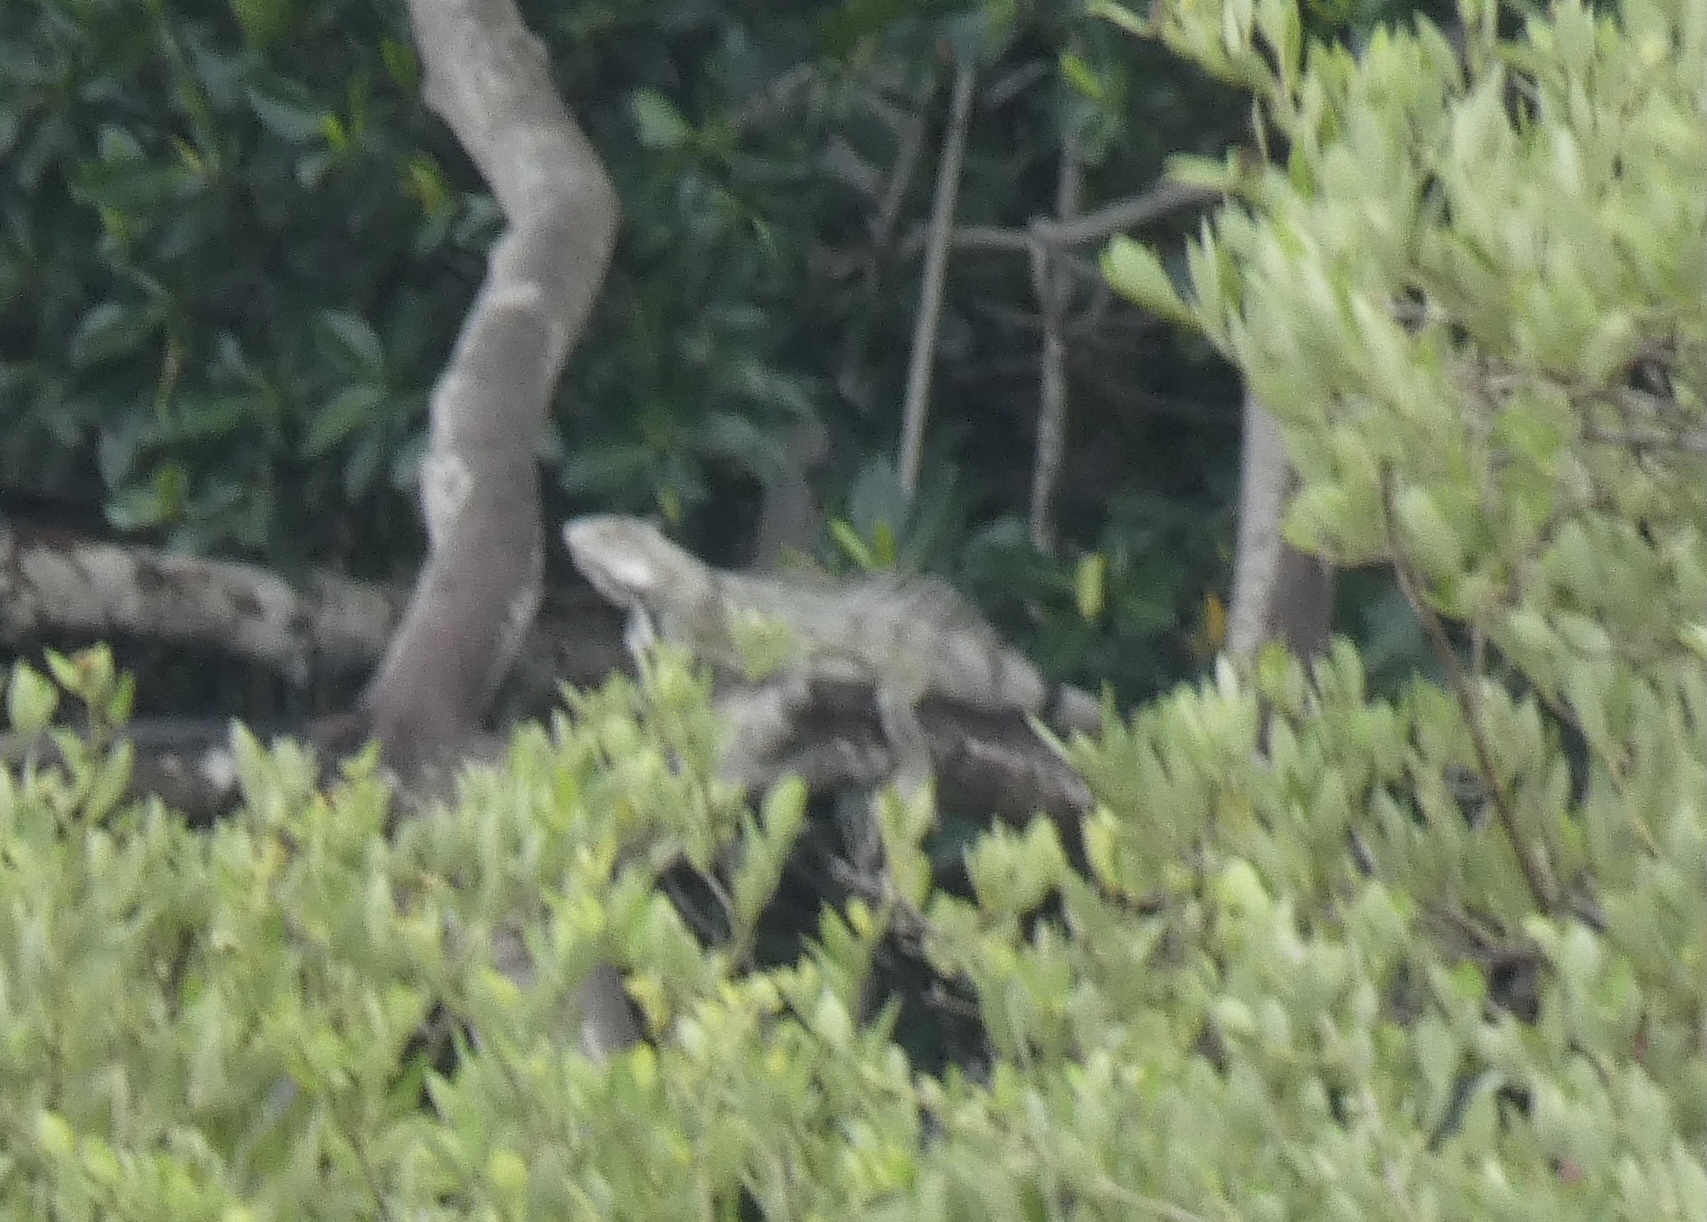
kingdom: Animalia
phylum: Chordata
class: Squamata
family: Iguanidae
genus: Iguana
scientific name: Iguana iguana
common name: Green iguana
